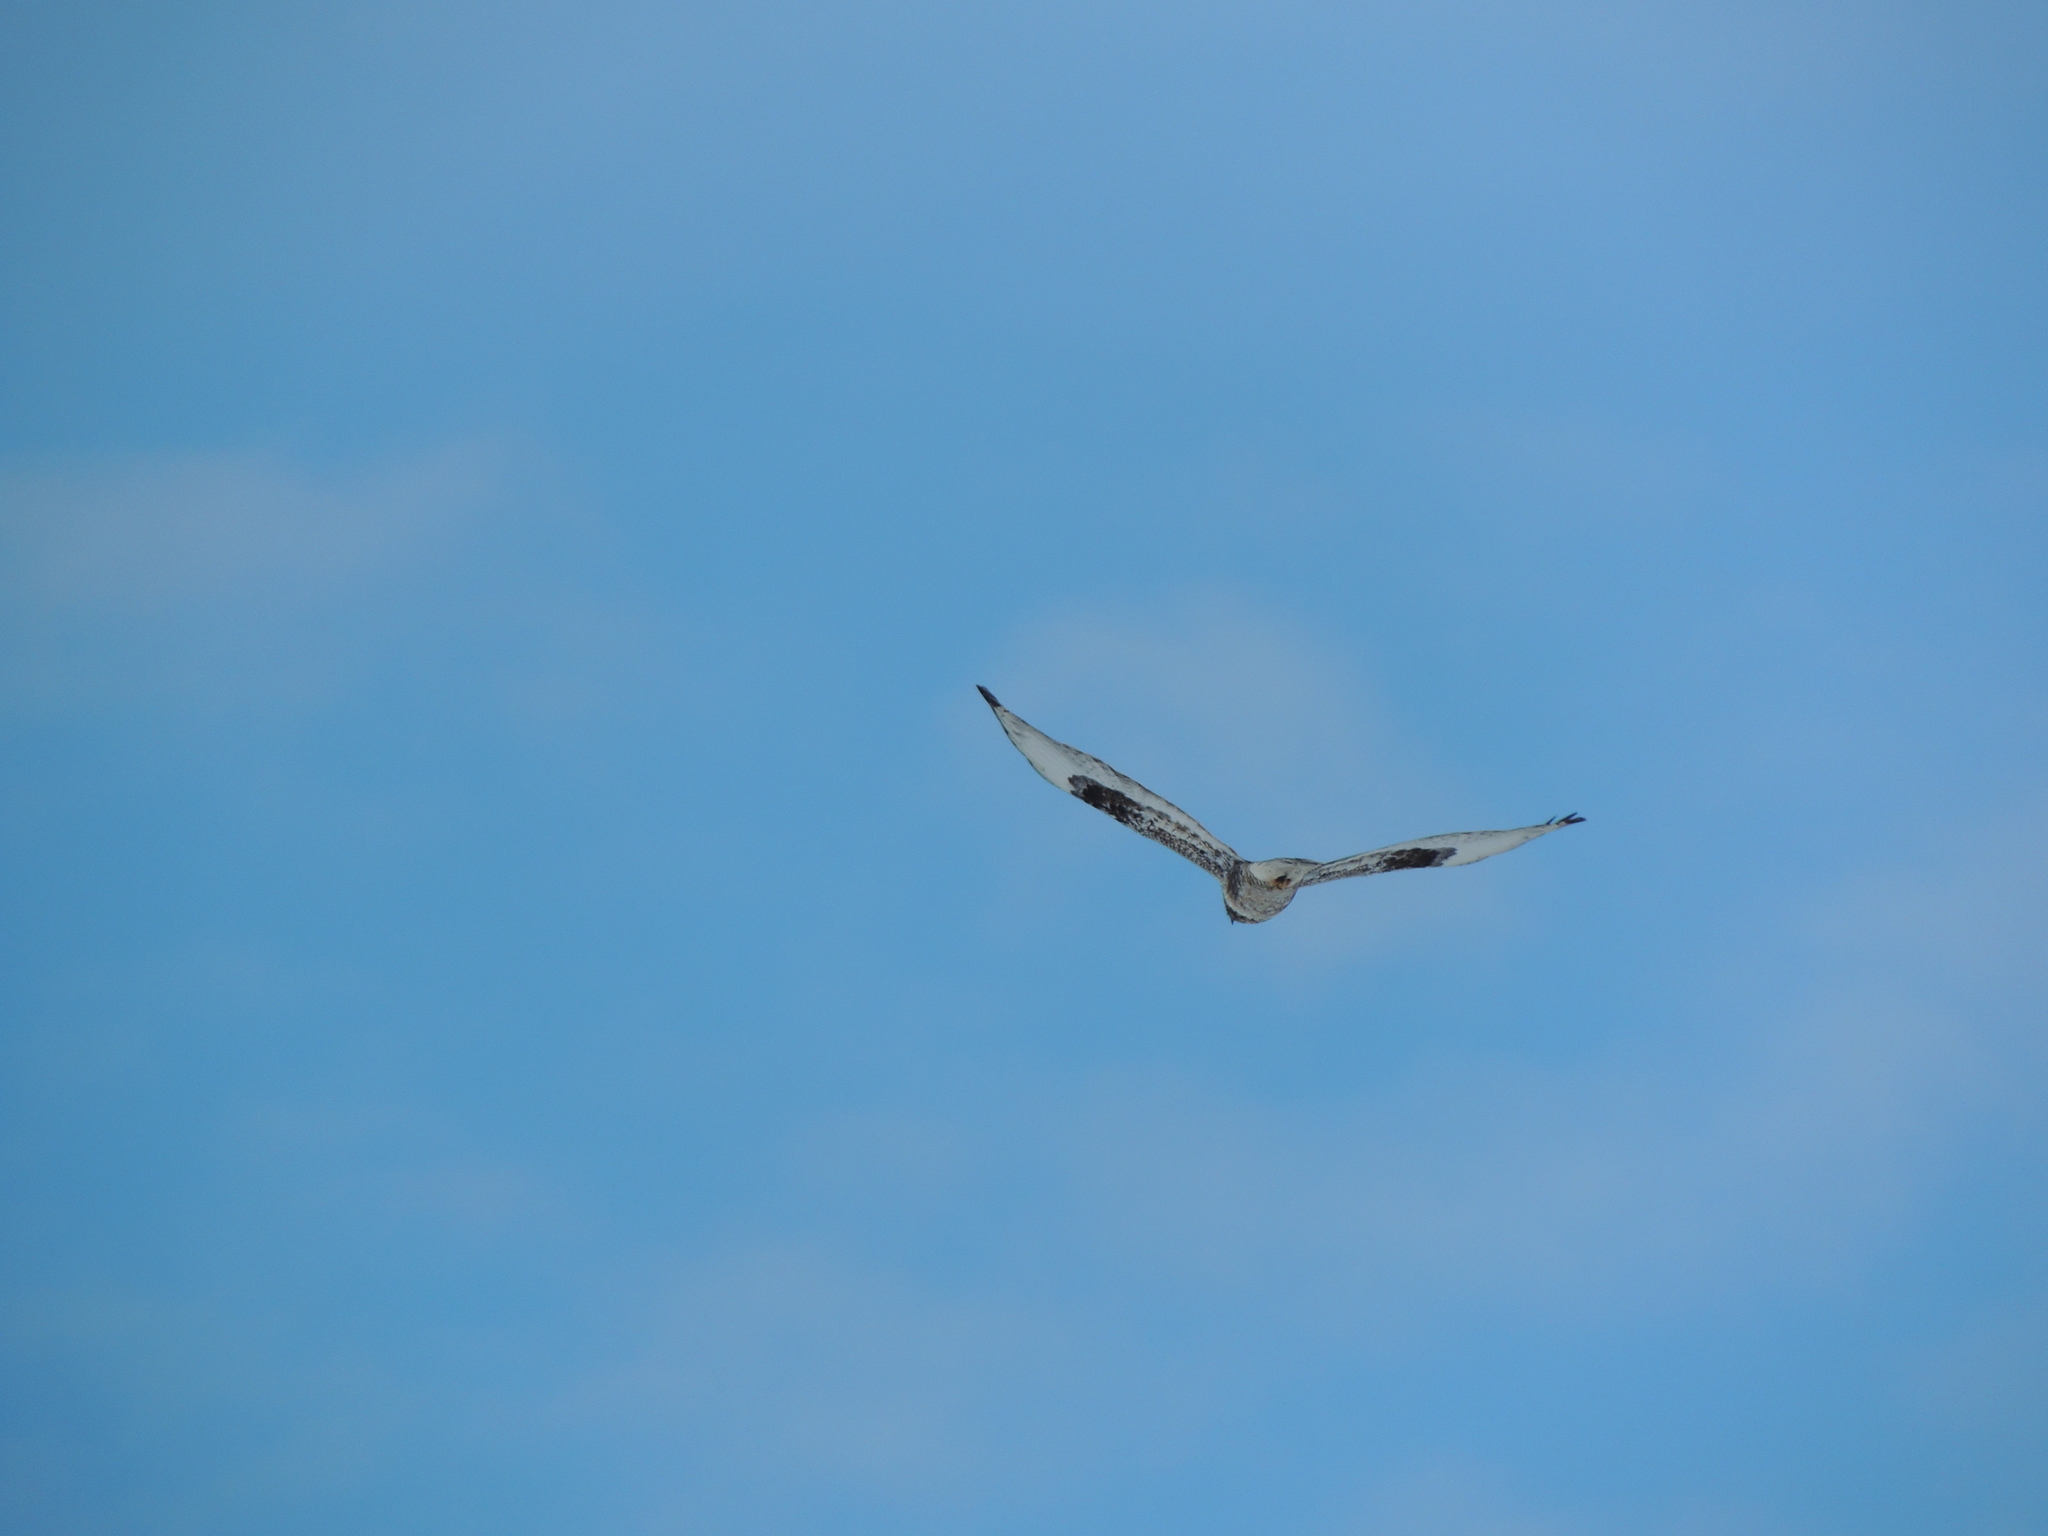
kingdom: Animalia
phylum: Chordata
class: Aves
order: Accipitriformes
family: Accipitridae
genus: Buteo
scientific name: Buteo lagopus
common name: Rough-legged buzzard
